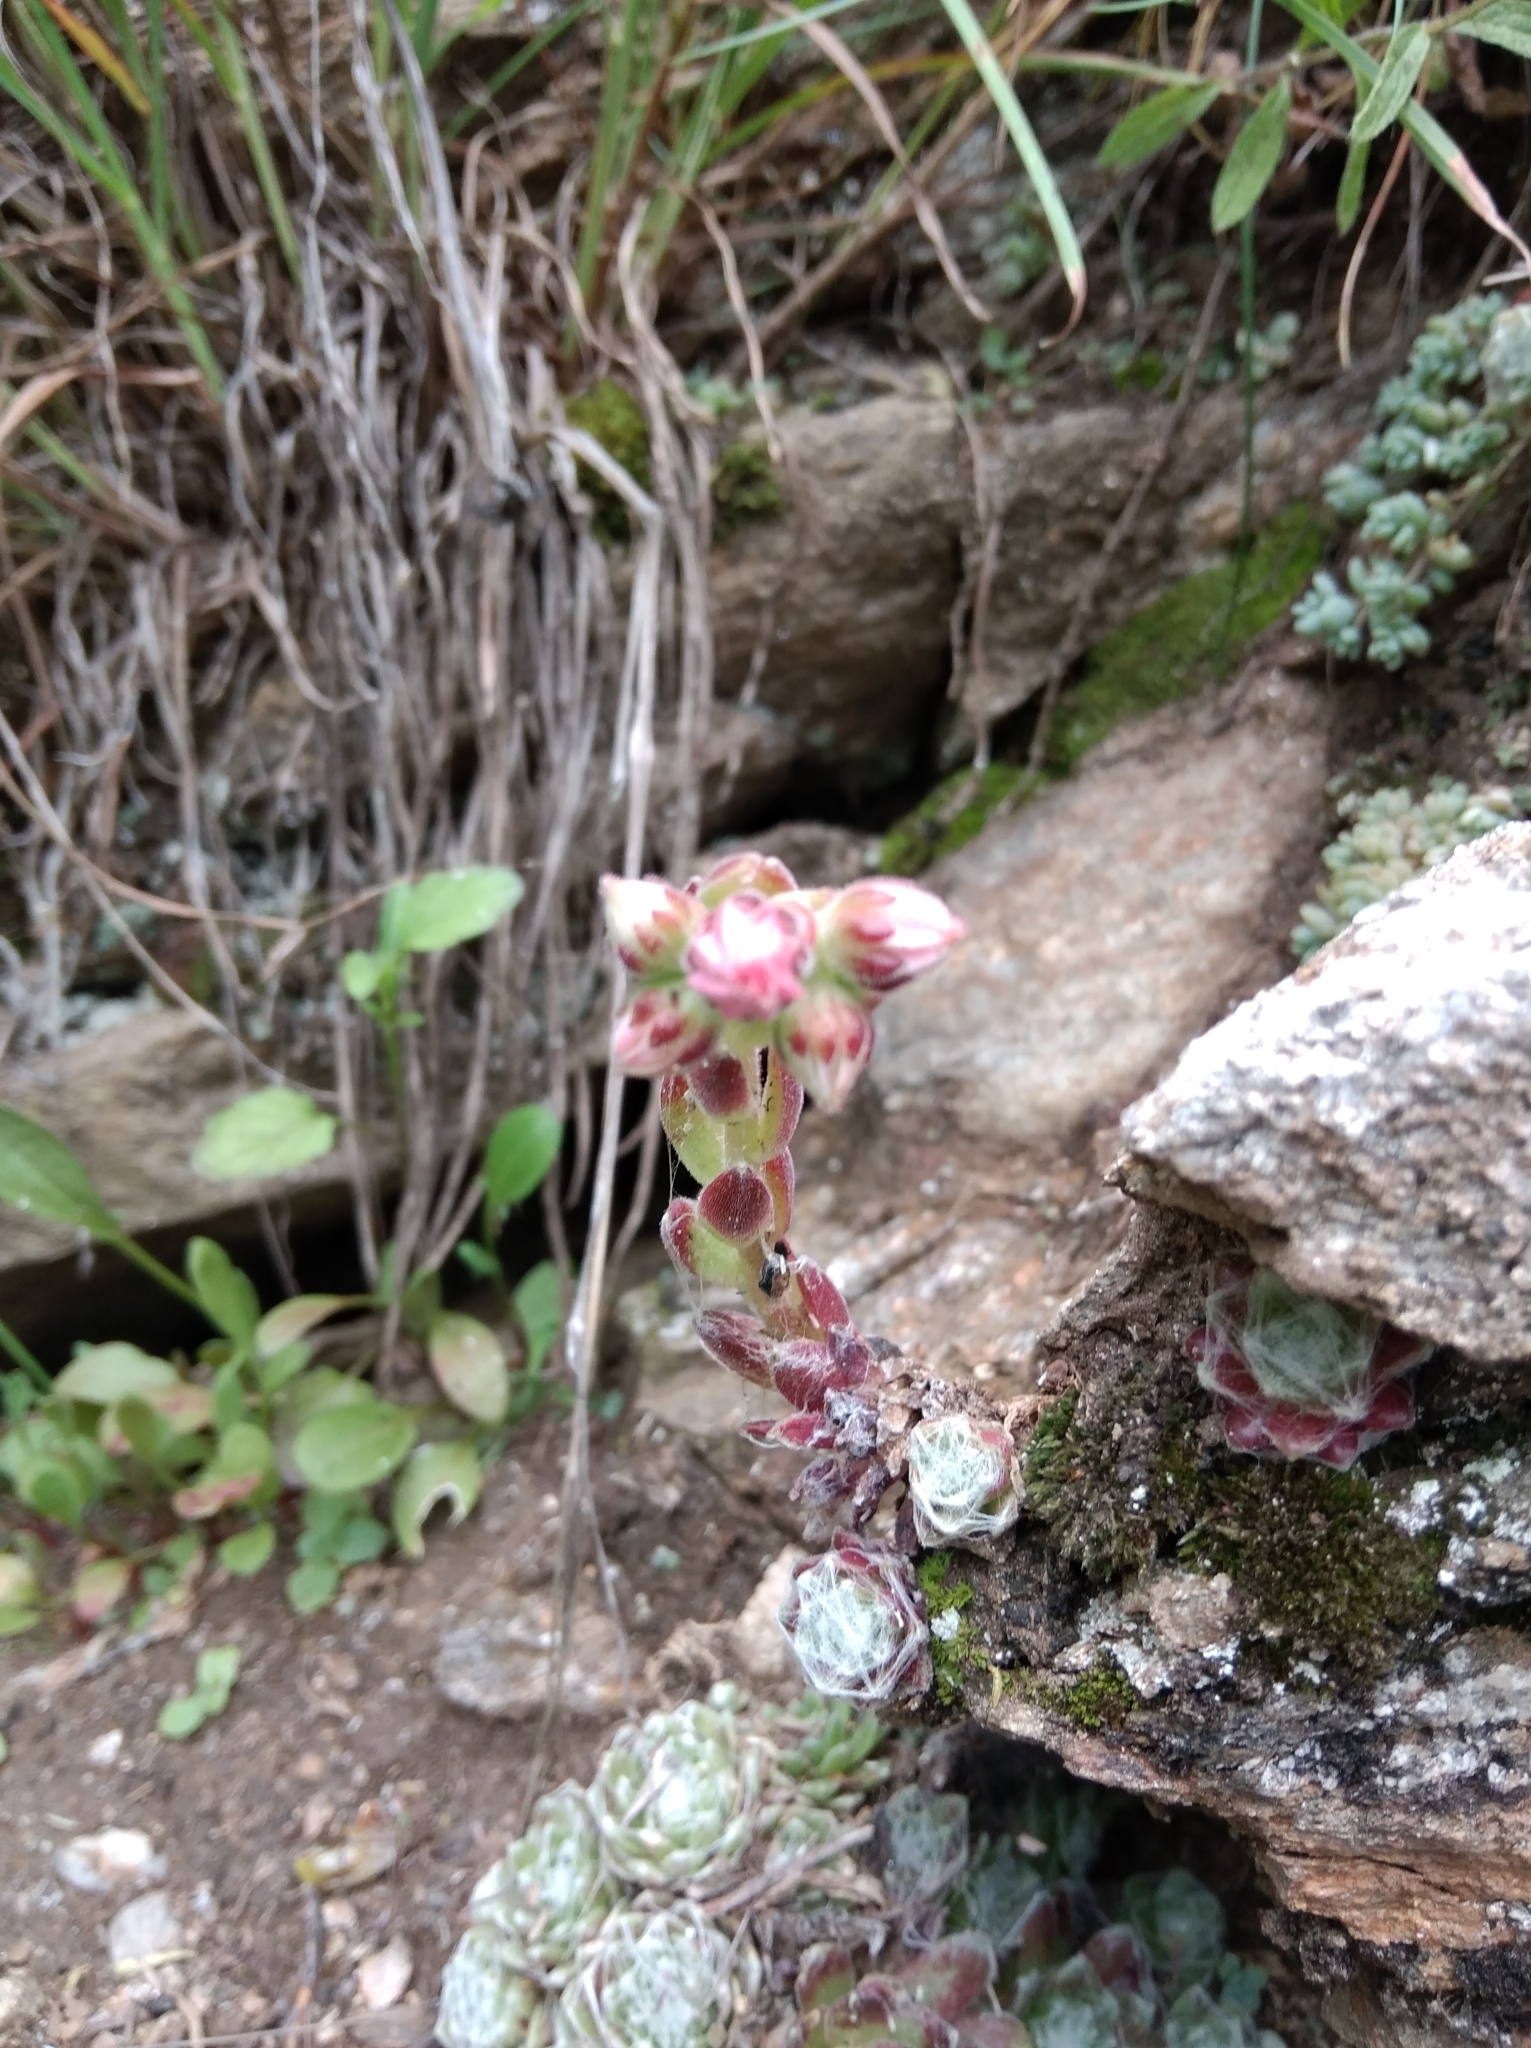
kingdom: Plantae
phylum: Tracheophyta
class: Magnoliopsida
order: Saxifragales
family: Crassulaceae
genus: Sempervivum
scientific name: Sempervivum arachnoideum
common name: Cobweb house-leek
